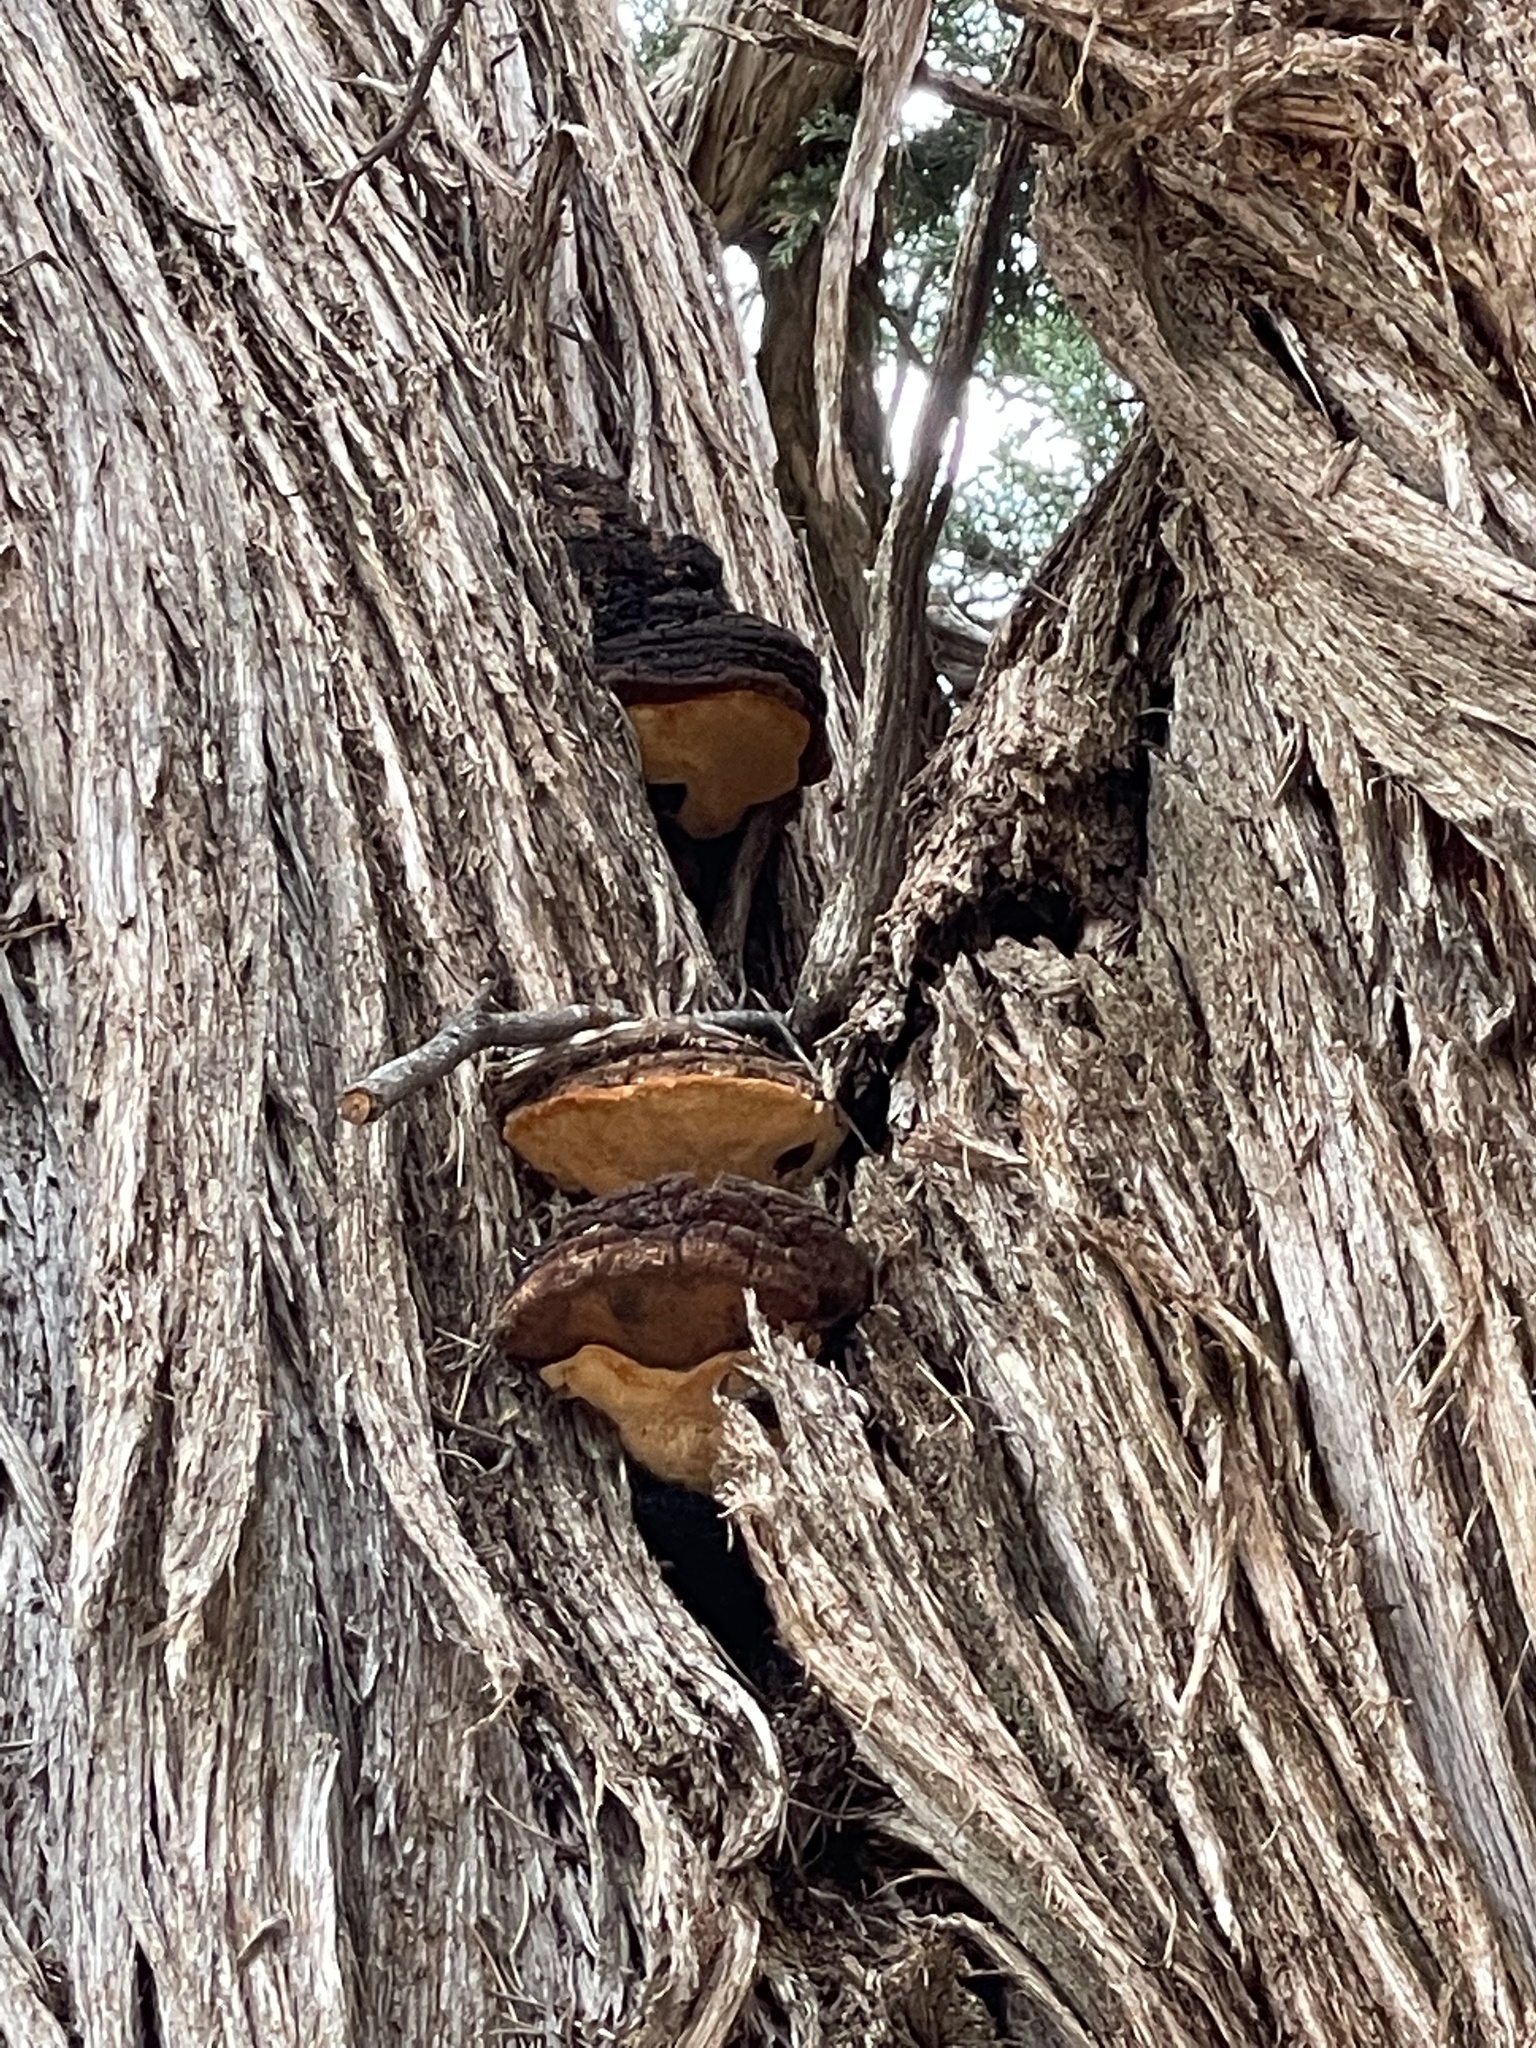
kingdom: Fungi
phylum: Basidiomycota
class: Agaricomycetes
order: Hymenochaetales
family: Hymenochaetaceae
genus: Fomitiporia
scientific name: Fomitiporia texana
